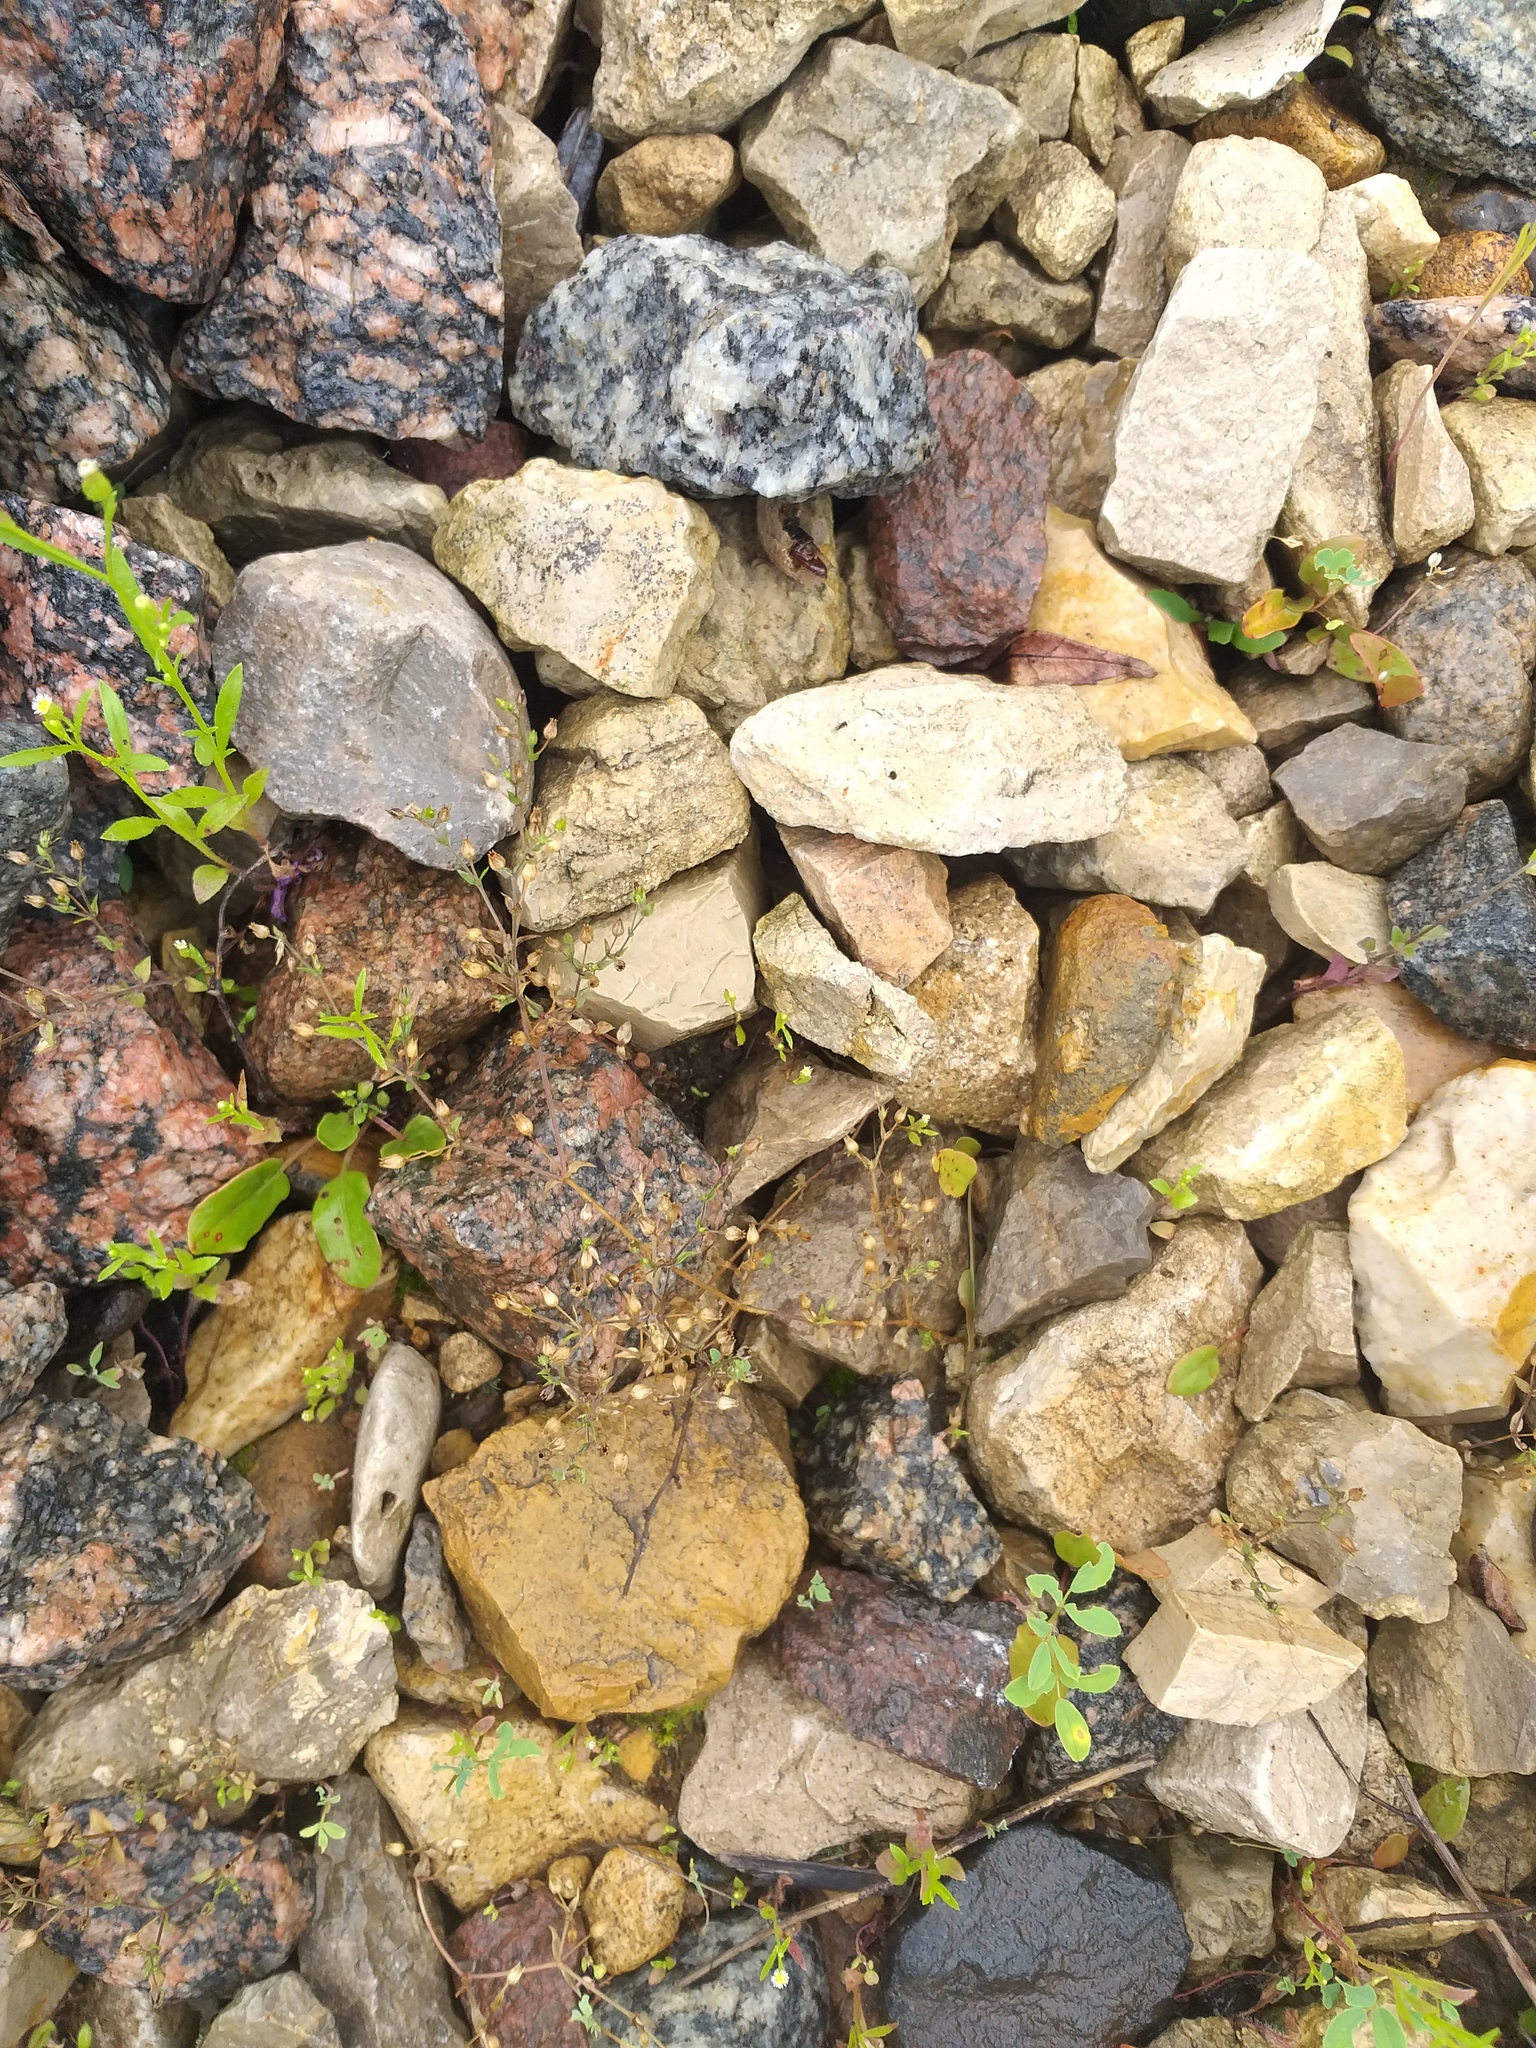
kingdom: Plantae
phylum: Tracheophyta
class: Magnoliopsida
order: Caryophyllales
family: Caryophyllaceae
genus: Arenaria
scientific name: Arenaria serpyllifolia
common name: Thyme-leaved sandwort
